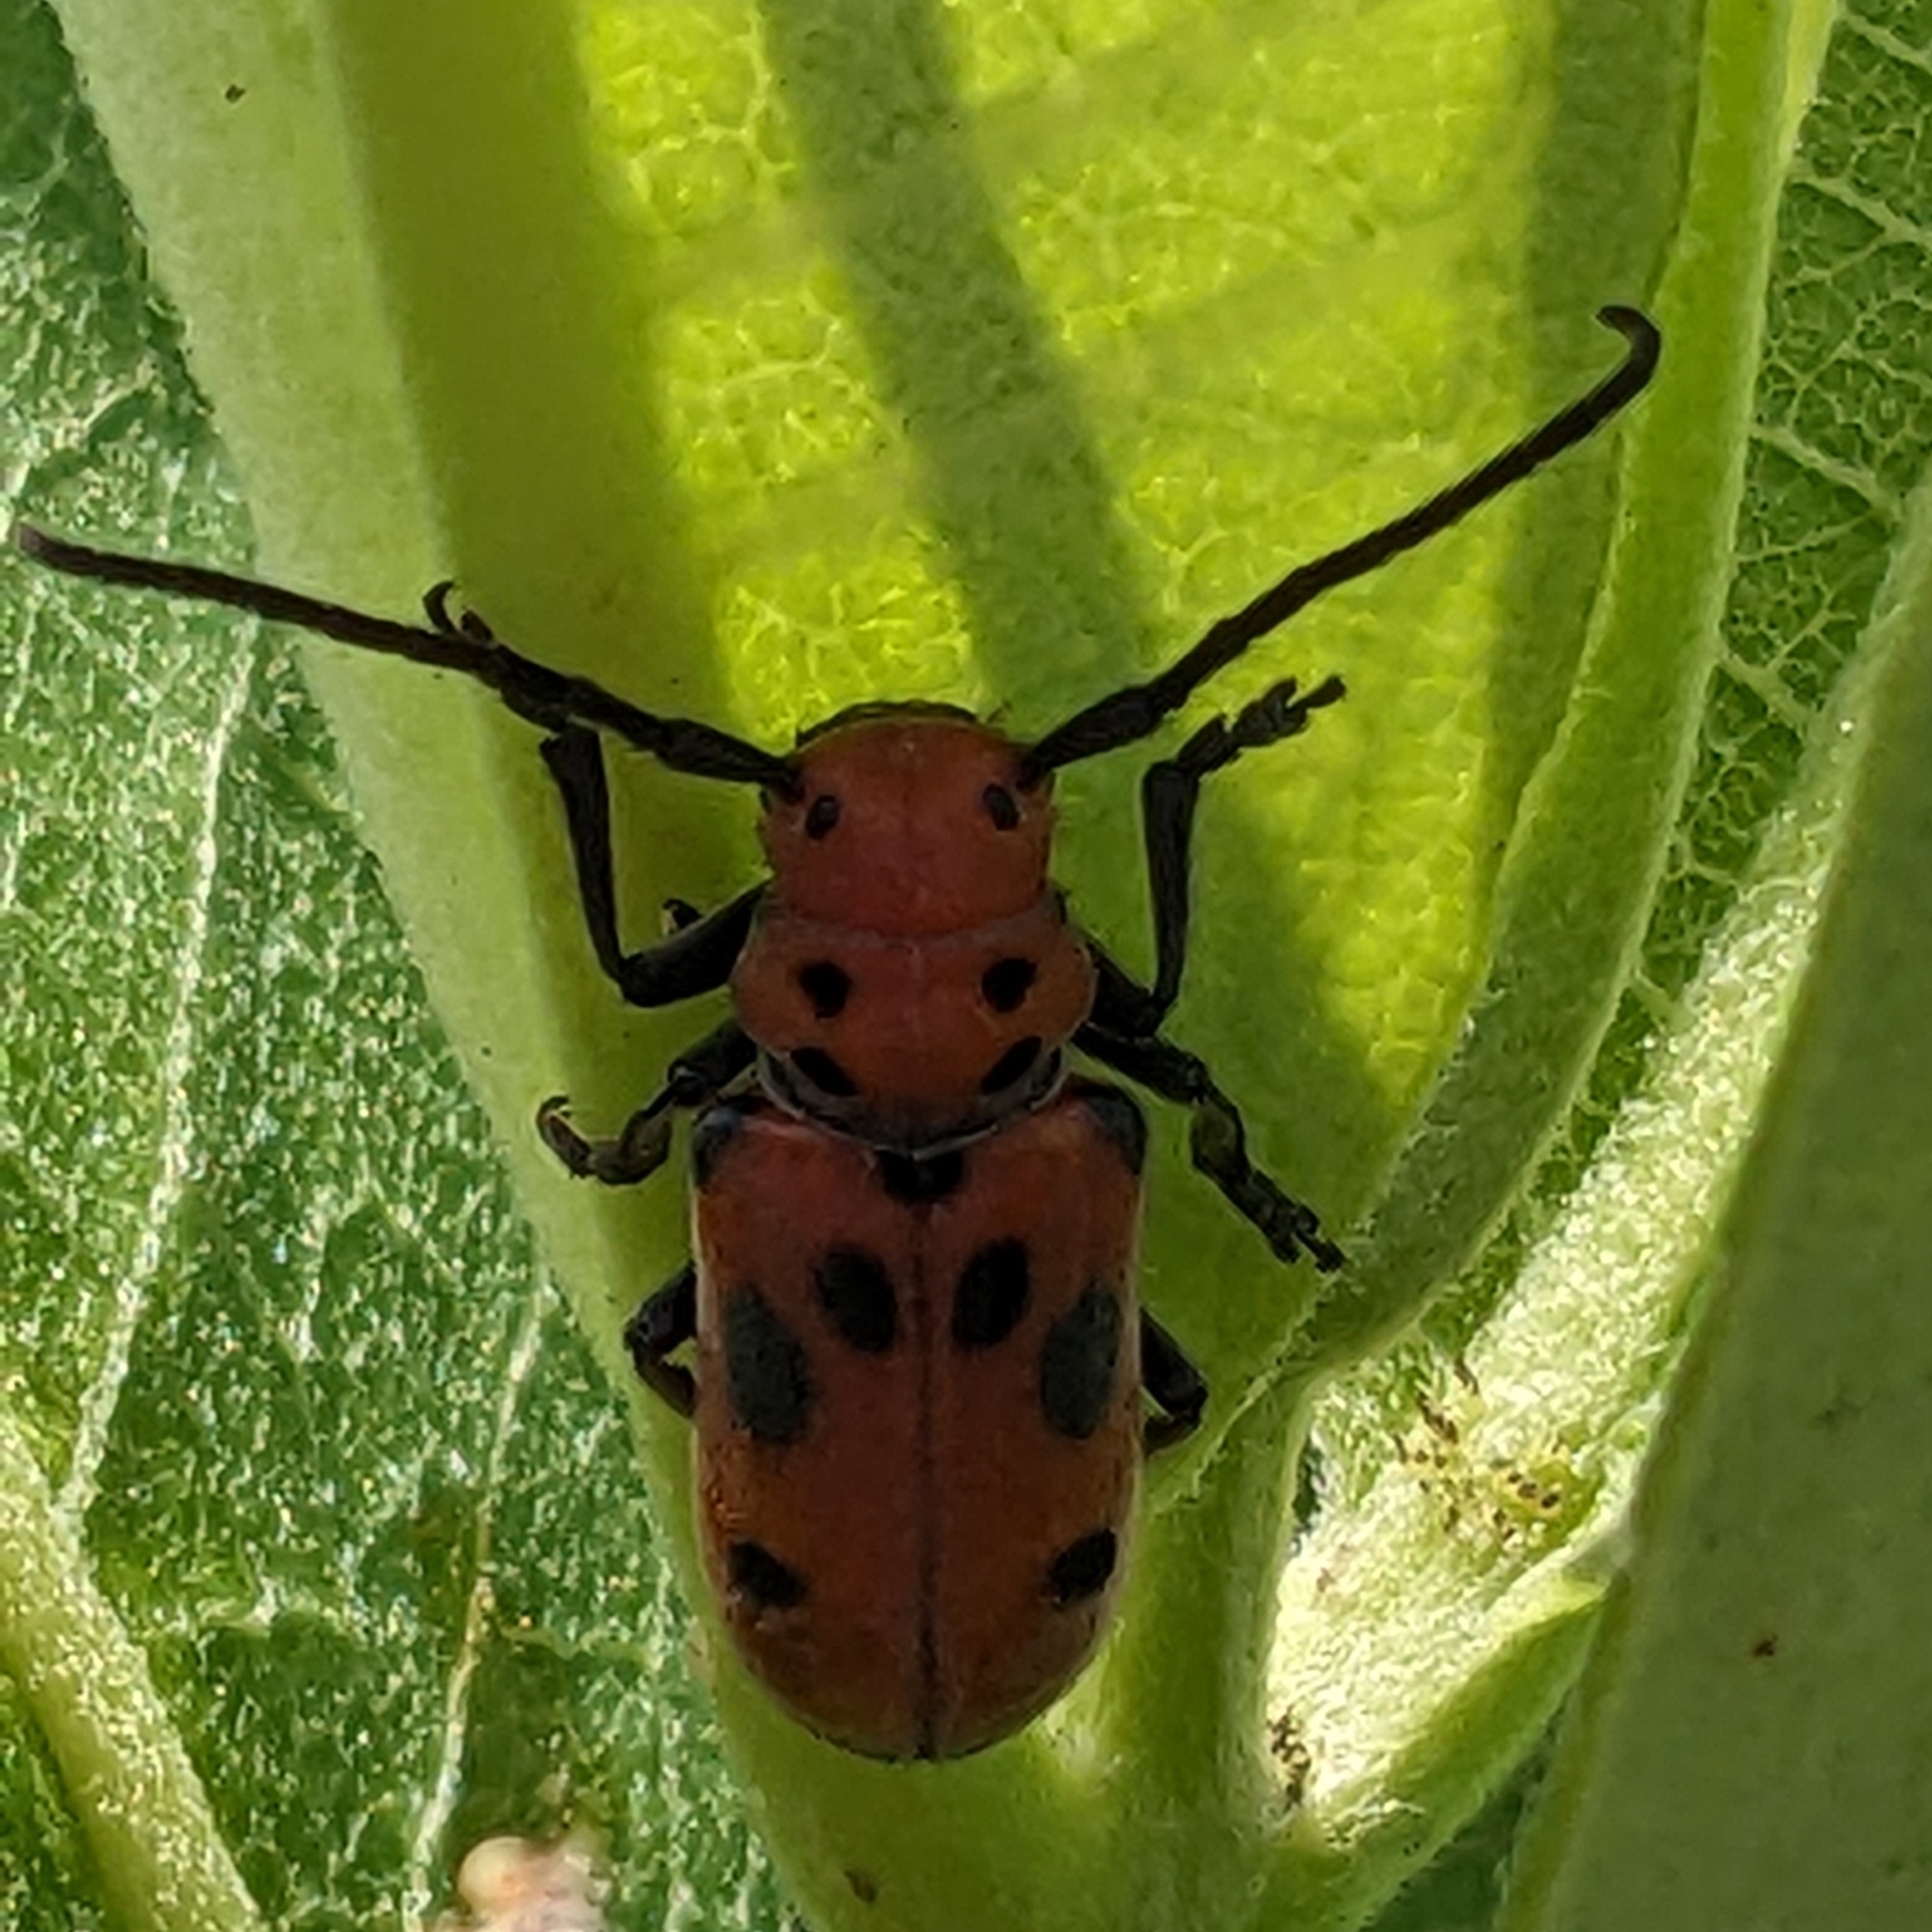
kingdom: Animalia
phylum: Arthropoda
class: Insecta
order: Coleoptera
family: Cerambycidae
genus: Tetraopes
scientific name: Tetraopes tetrophthalmus
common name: Red milkweed beetle
